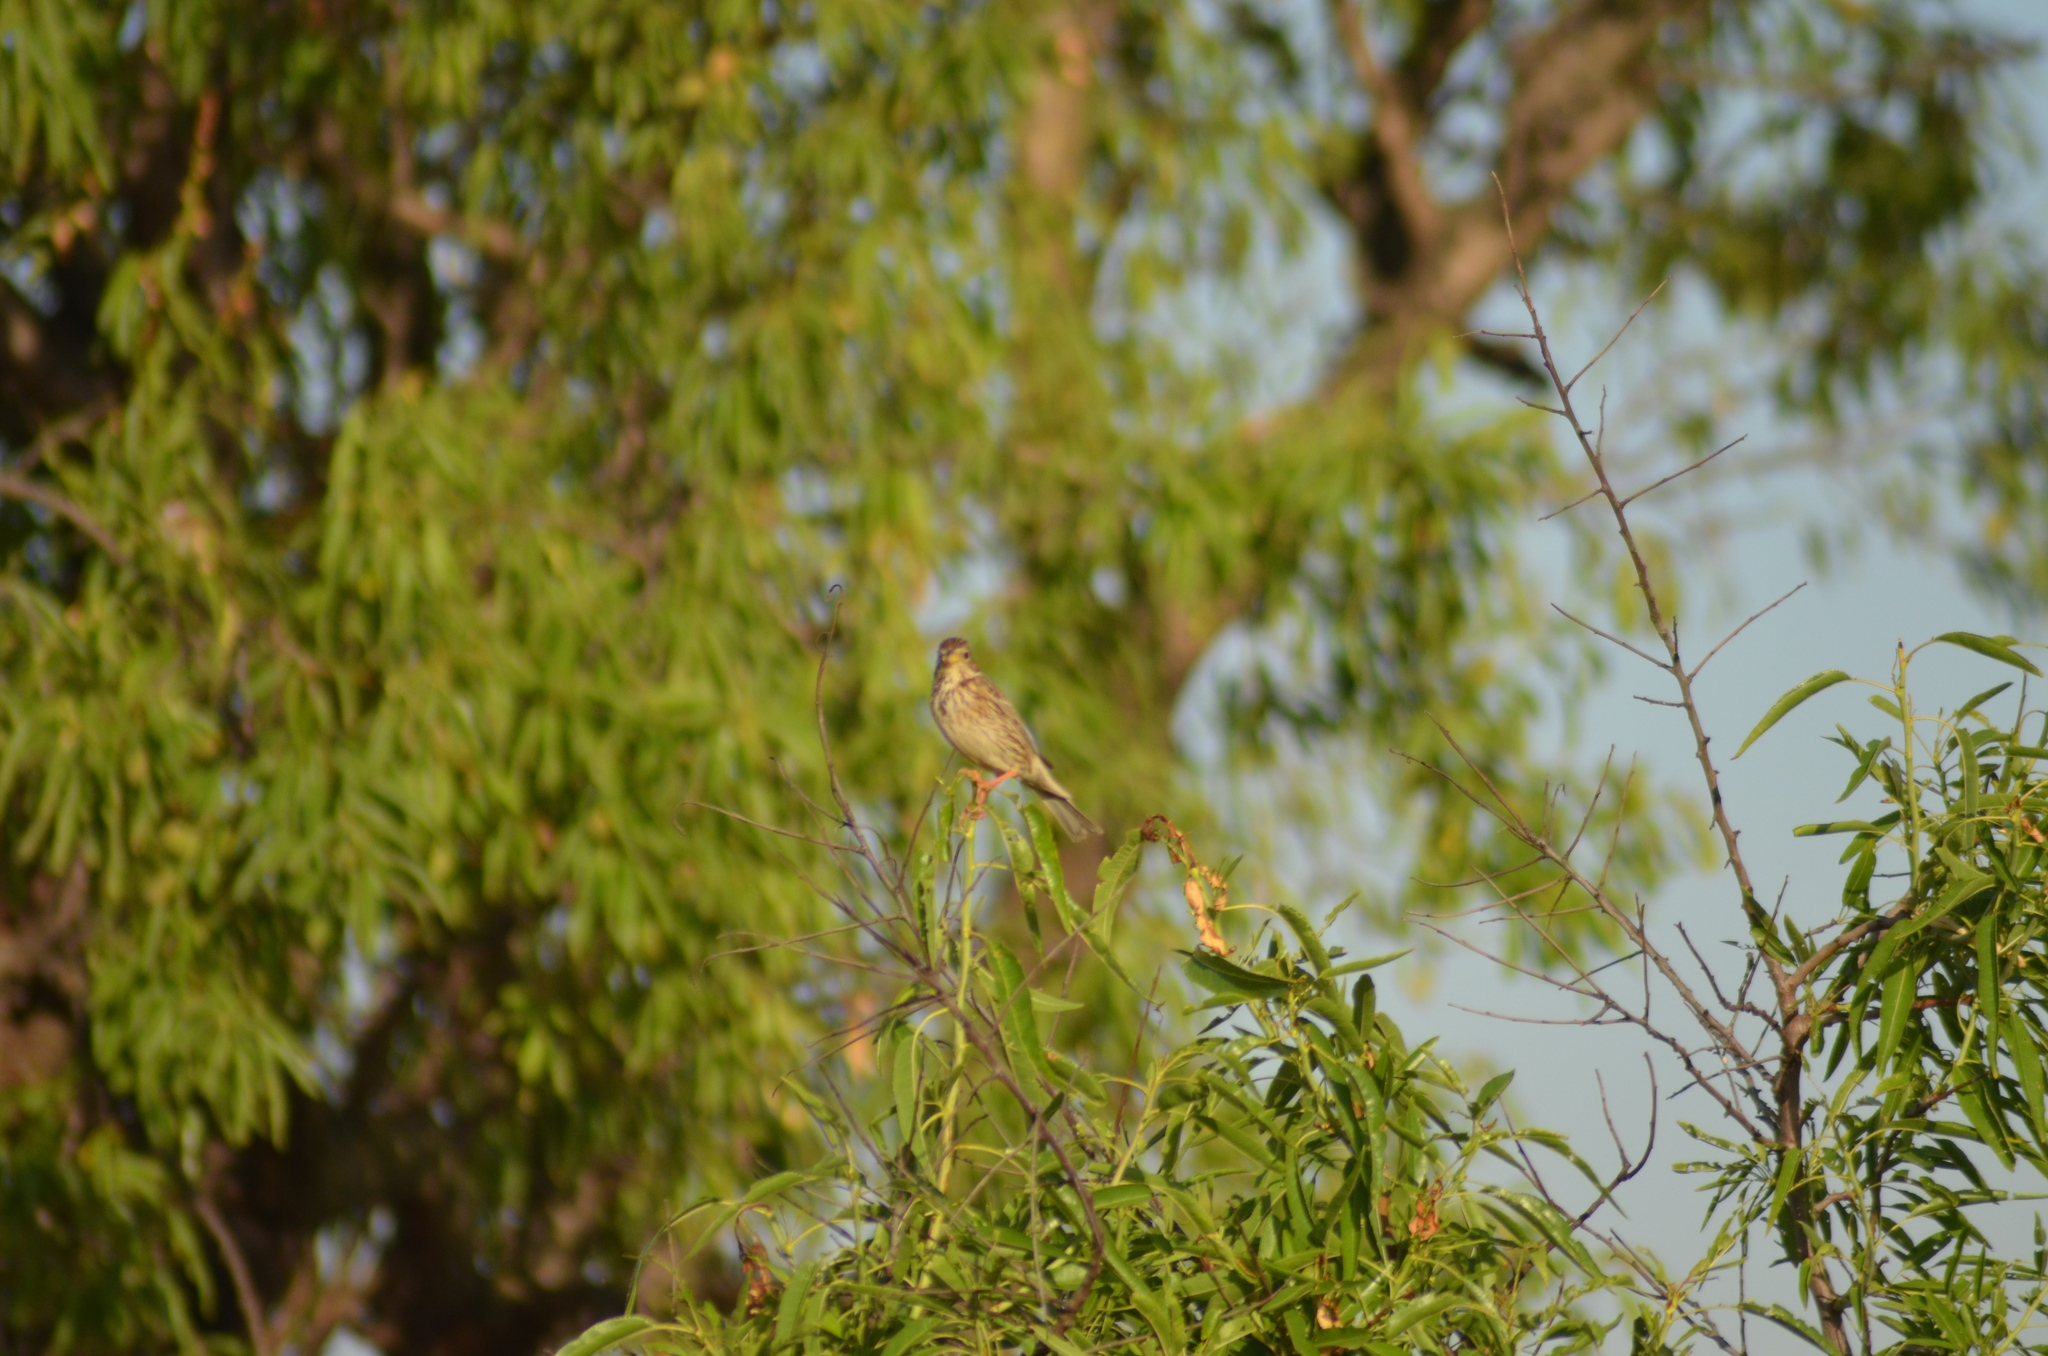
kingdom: Animalia
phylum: Chordata
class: Aves
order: Passeriformes
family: Emberizidae
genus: Emberiza
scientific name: Emberiza calandra
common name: Corn bunting
